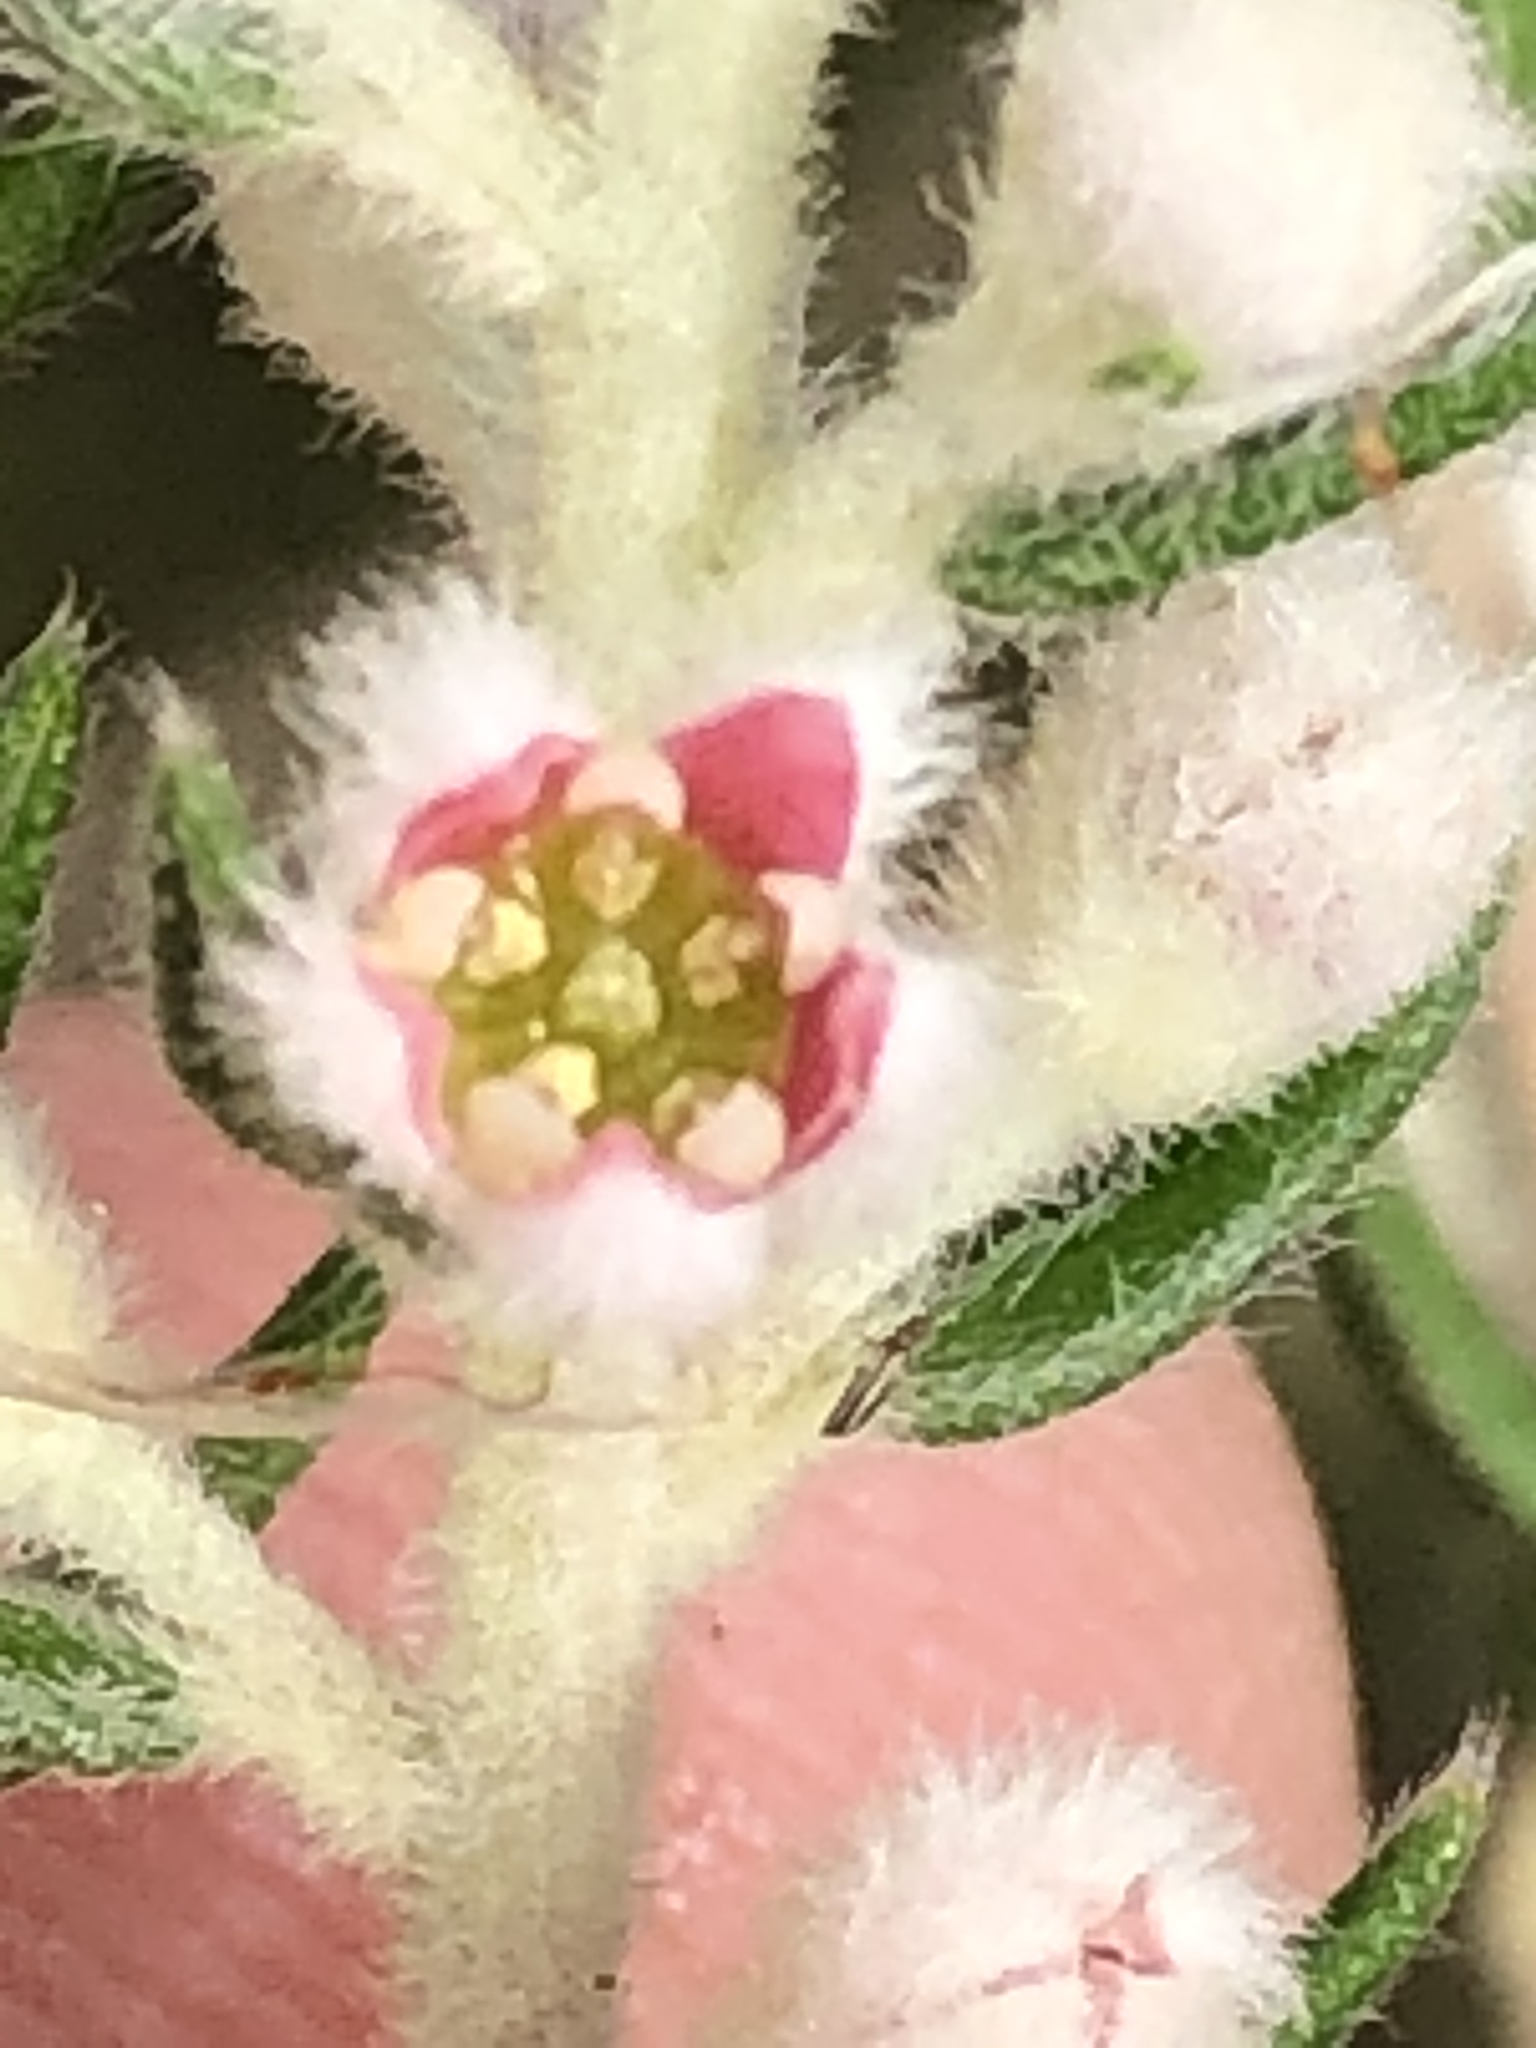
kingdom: Plantae
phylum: Tracheophyta
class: Magnoliopsida
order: Rosales
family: Rhamnaceae
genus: Phylica
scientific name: Phylica pinea
